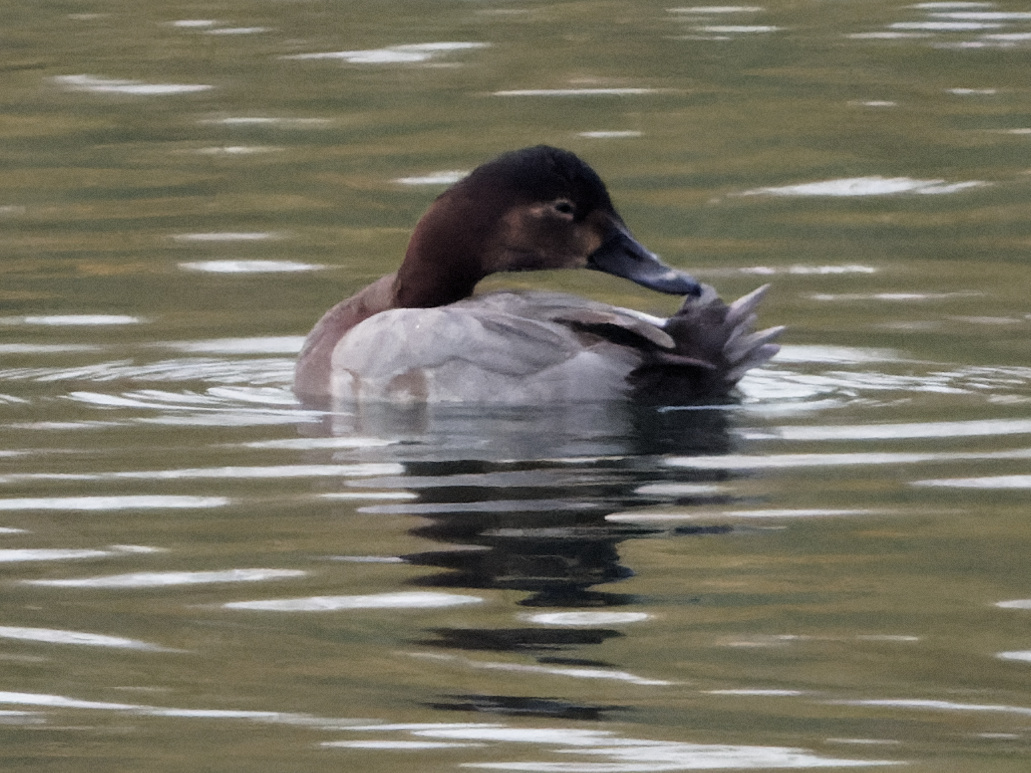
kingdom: Animalia
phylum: Chordata
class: Aves
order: Anseriformes
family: Anatidae
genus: Aythya
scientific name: Aythya ferina
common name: Common pochard
